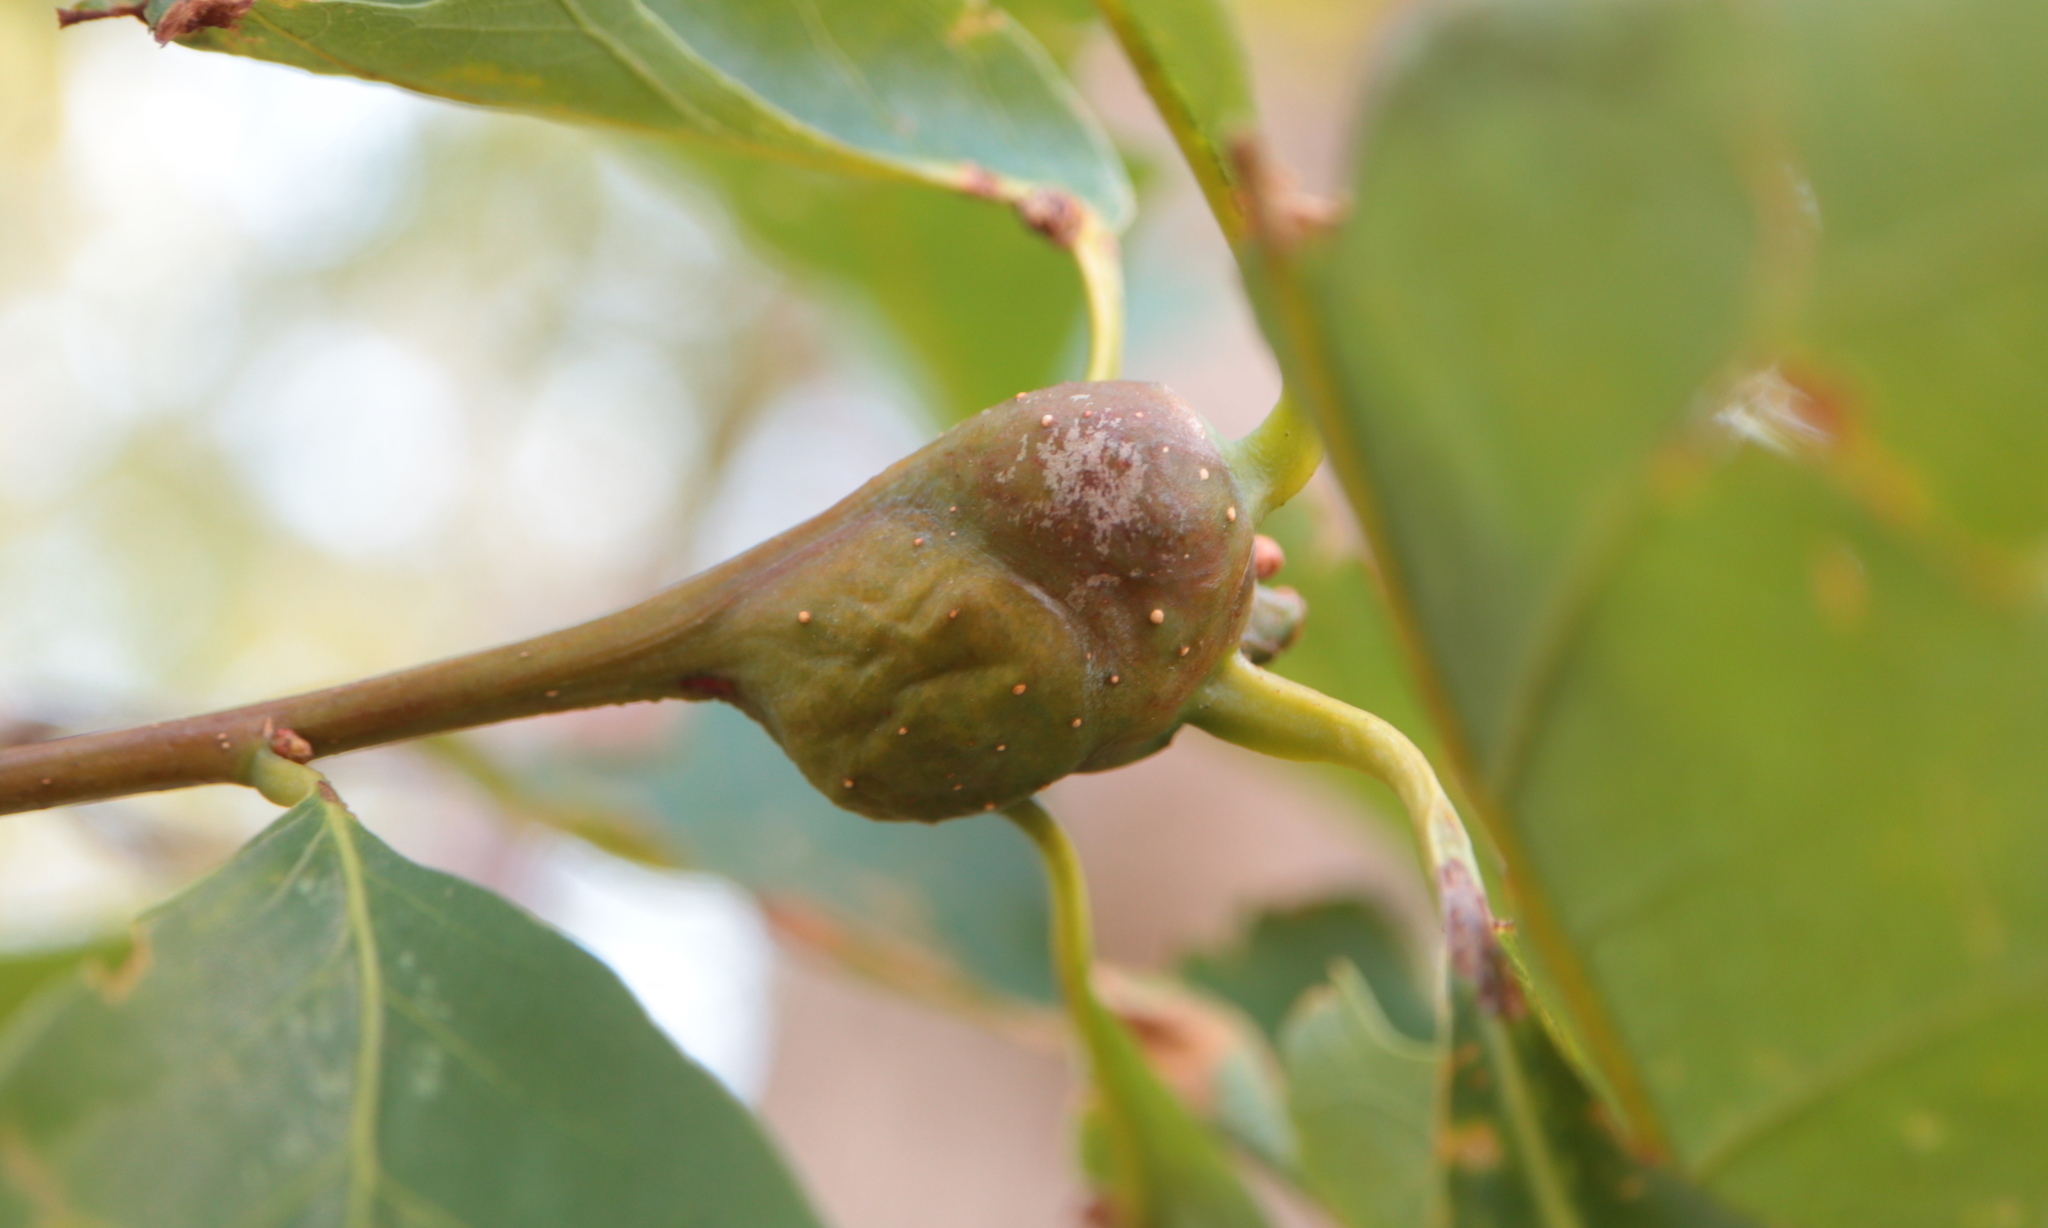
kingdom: Animalia
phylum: Arthropoda
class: Insecta
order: Hymenoptera
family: Cynipidae
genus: Callirhytis
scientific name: Callirhytis clavula
